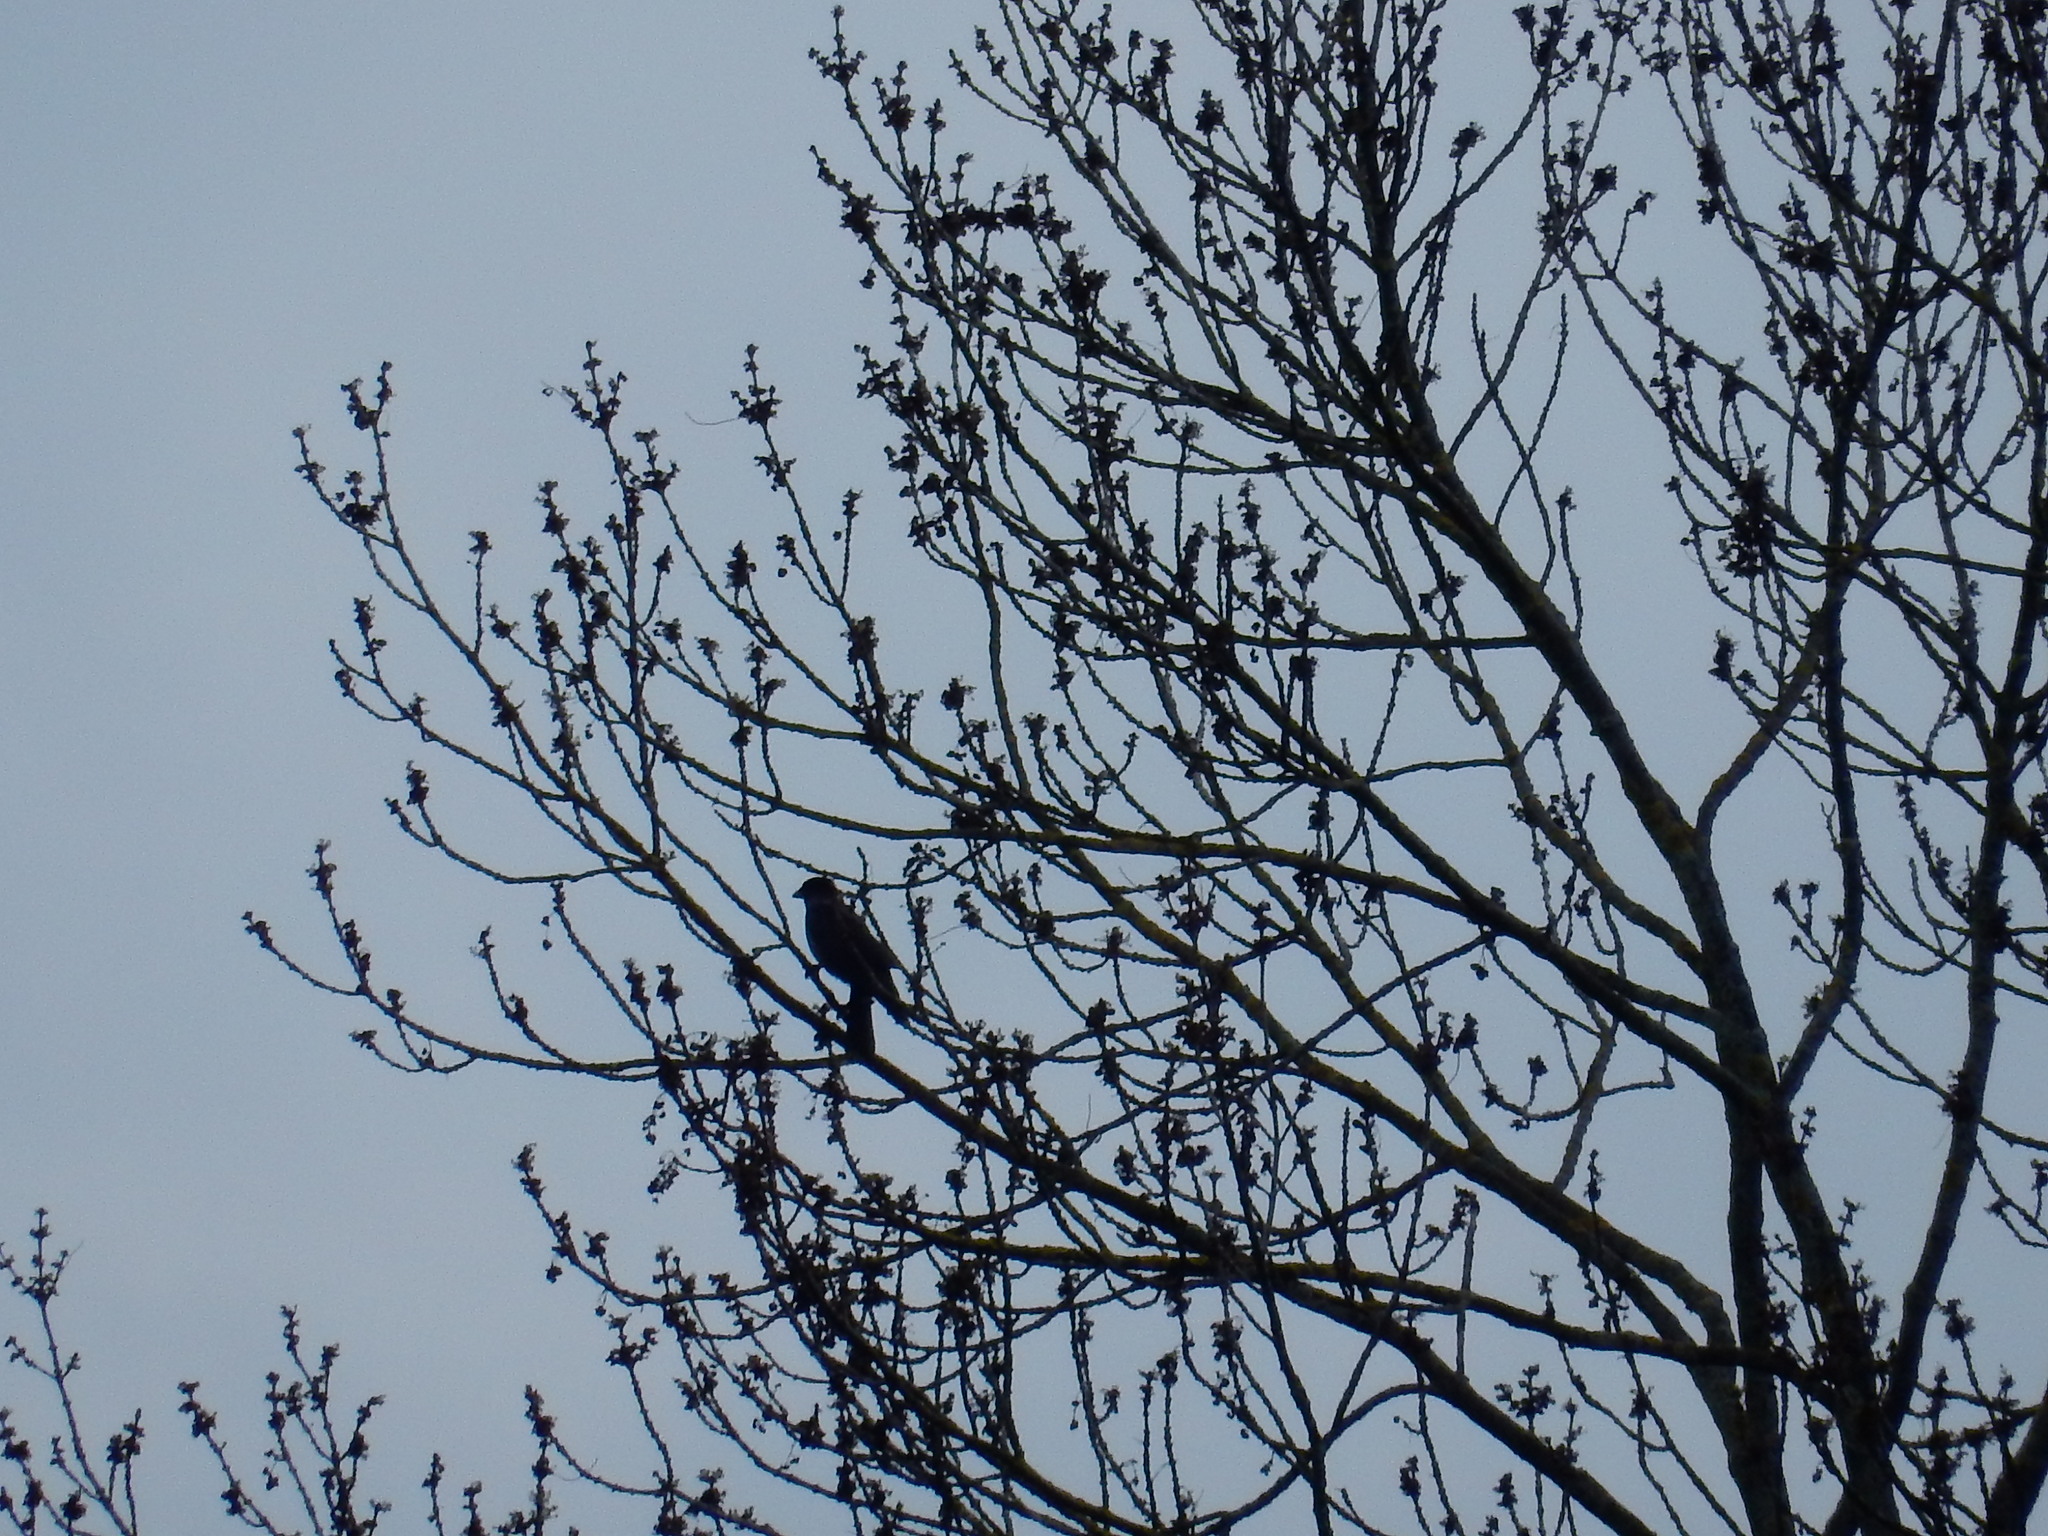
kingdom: Animalia
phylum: Chordata
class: Aves
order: Passeriformes
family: Turdidae
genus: Turdus
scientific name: Turdus merula
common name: Common blackbird
